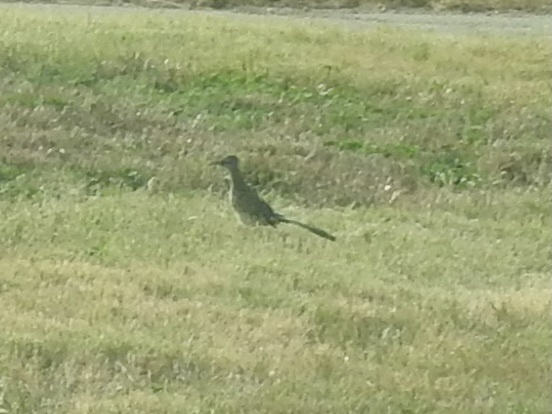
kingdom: Animalia
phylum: Chordata
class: Aves
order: Cuculiformes
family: Cuculidae
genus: Geococcyx
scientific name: Geococcyx californianus
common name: Greater roadrunner
